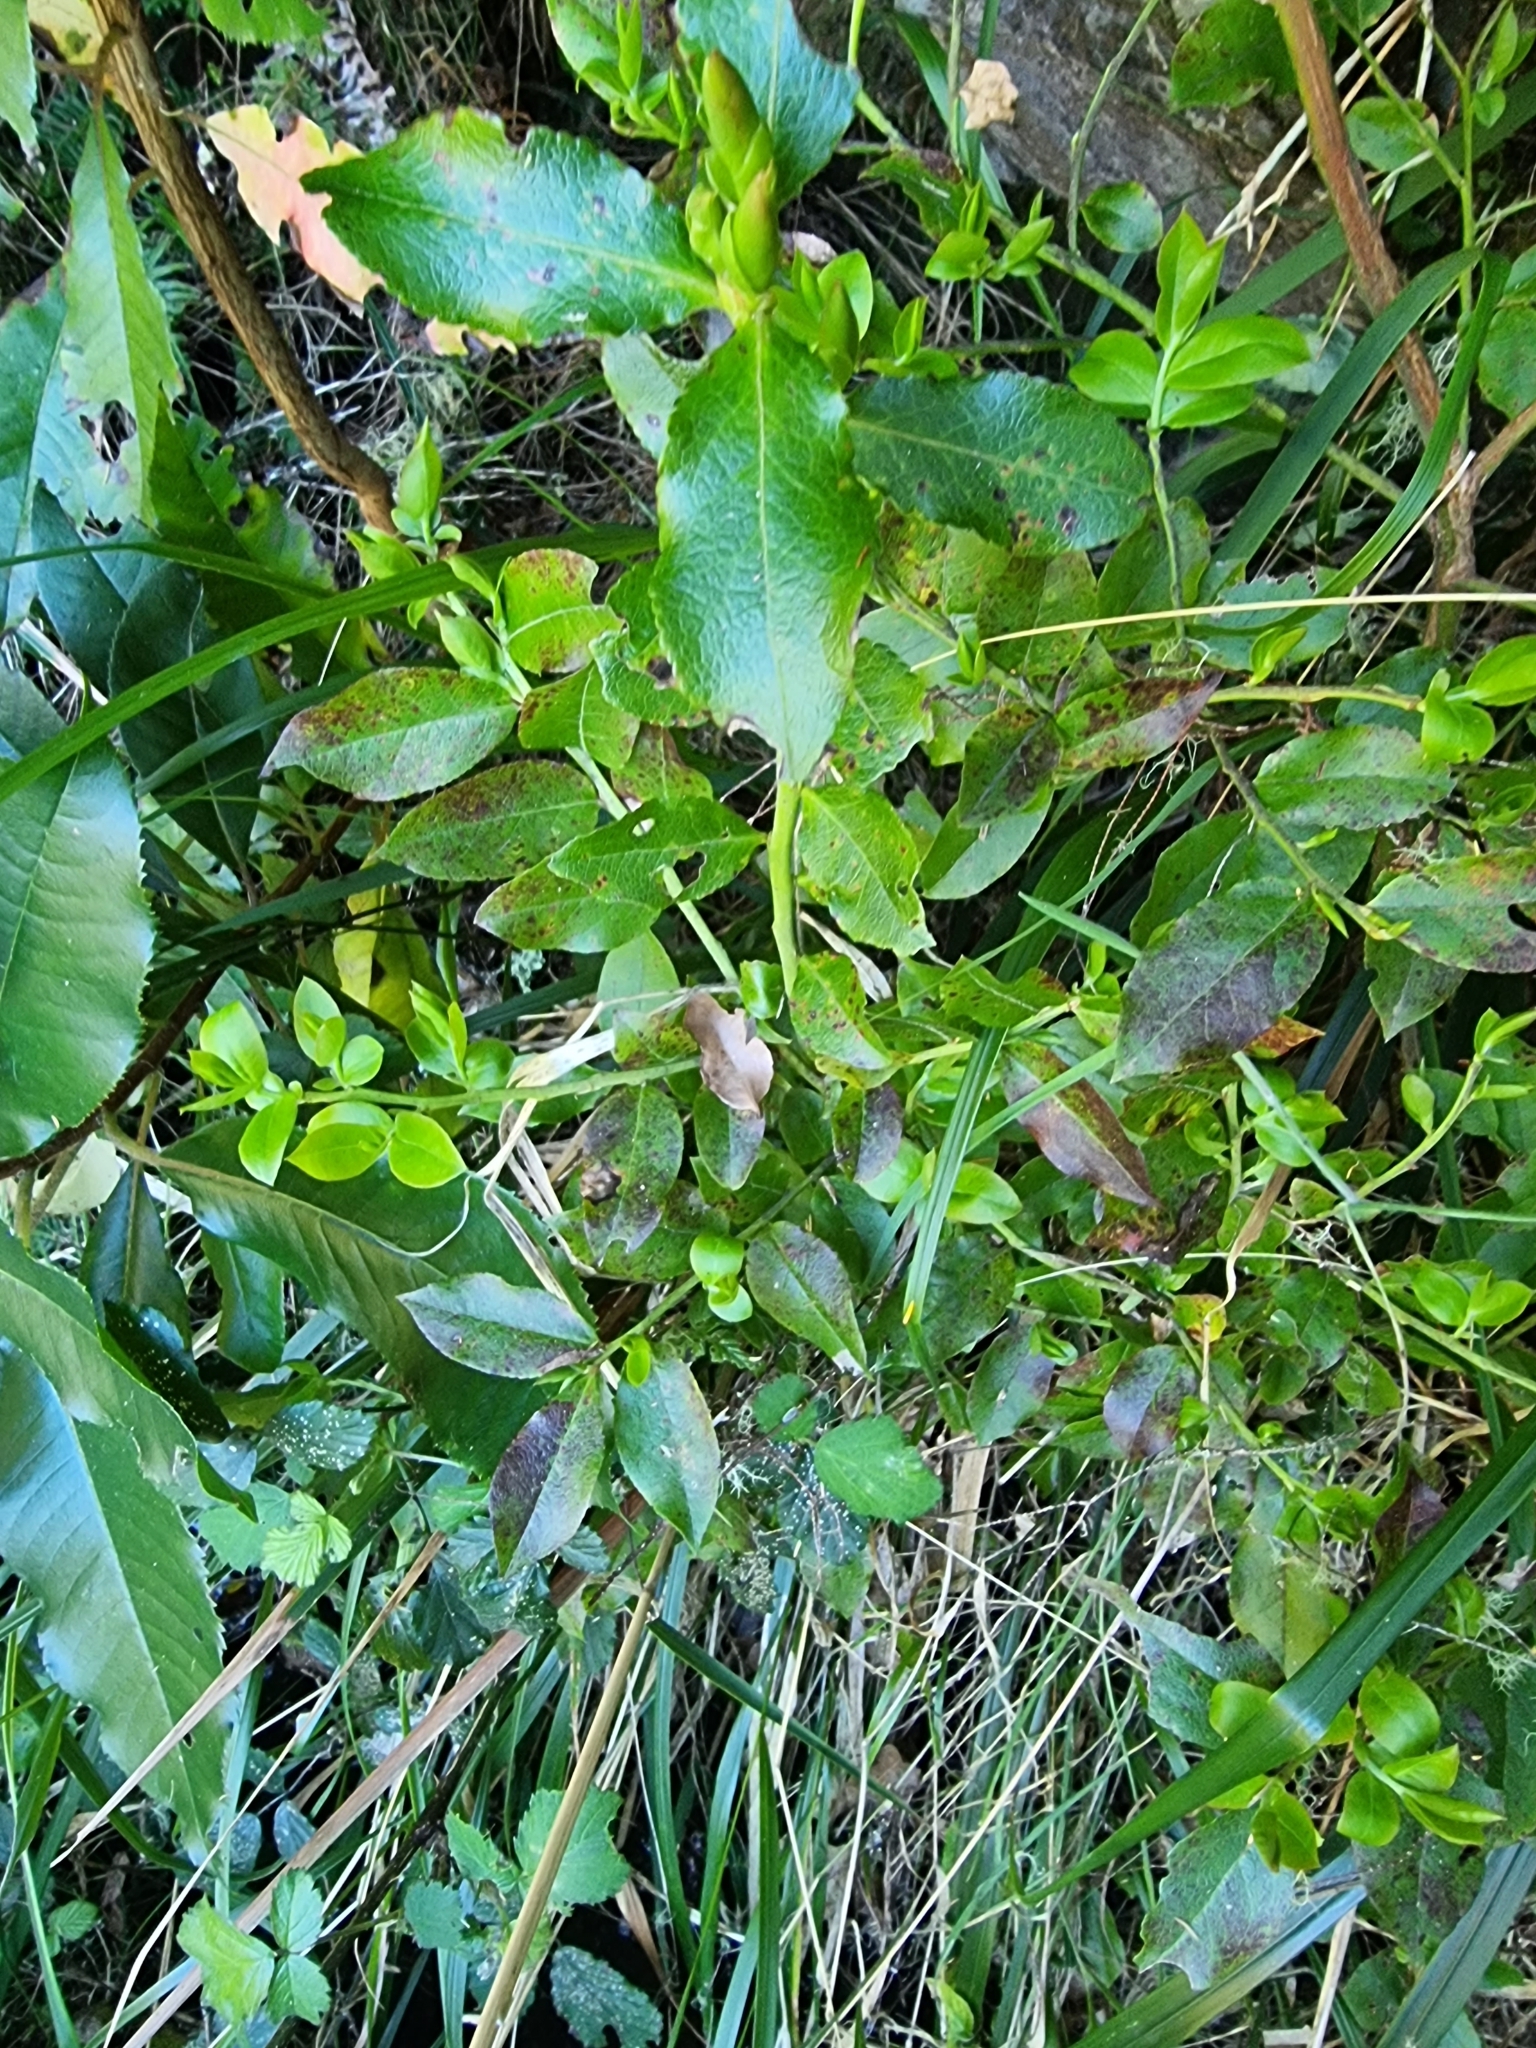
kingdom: Plantae
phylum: Tracheophyta
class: Magnoliopsida
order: Ericales
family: Ericaceae
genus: Vaccinium
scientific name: Vaccinium padifolium
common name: Madeiran blueberry
